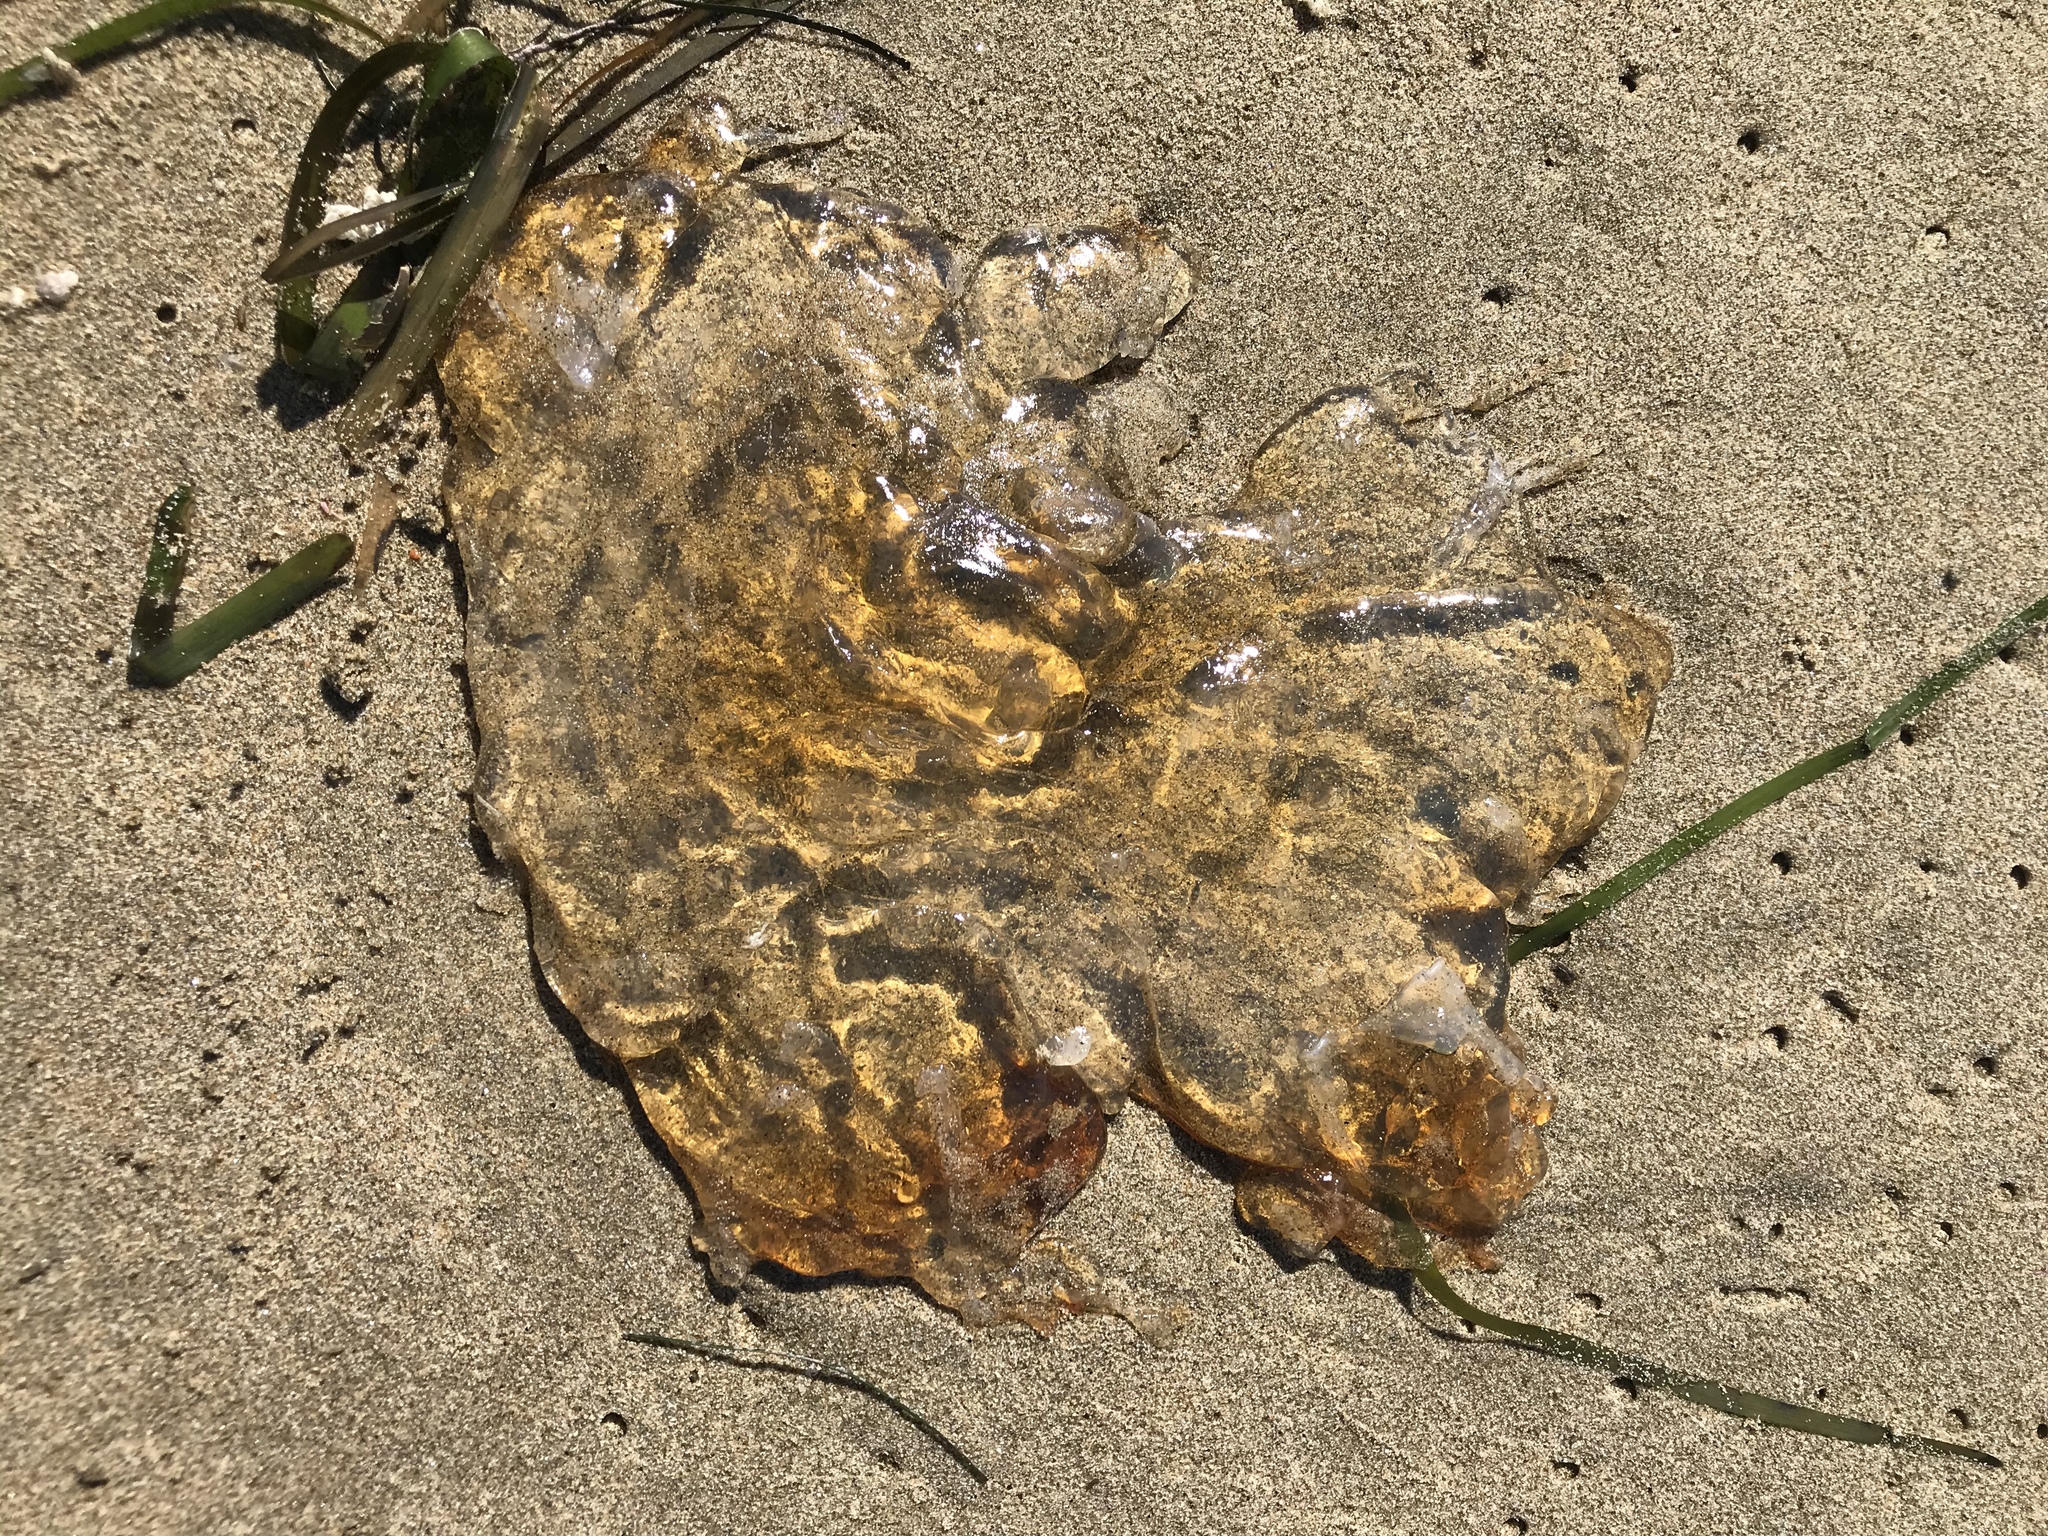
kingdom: Animalia
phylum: Cnidaria
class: Scyphozoa
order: Semaeostomeae
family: Pelagiidae
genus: Chrysaora
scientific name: Chrysaora fuscescens
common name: Sea nettle
